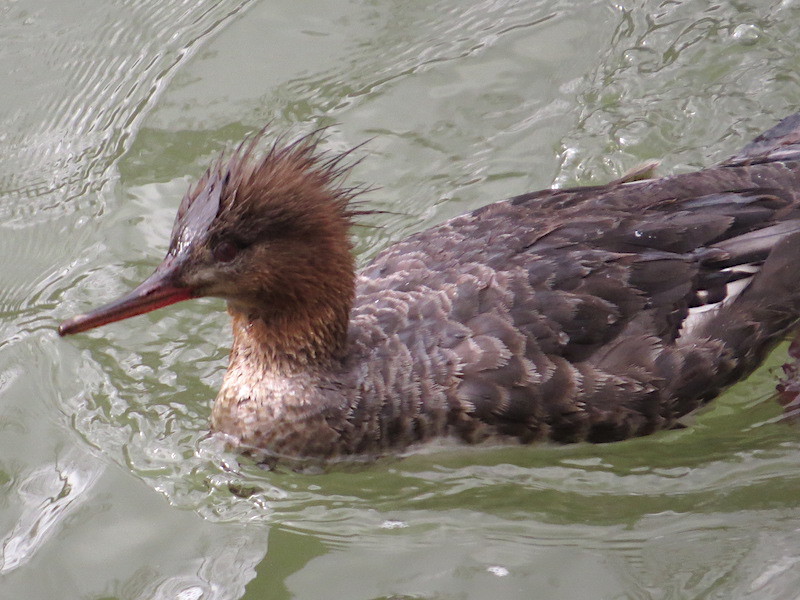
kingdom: Animalia
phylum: Chordata
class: Aves
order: Anseriformes
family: Anatidae
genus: Mergus
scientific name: Mergus serrator
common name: Red-breasted merganser
